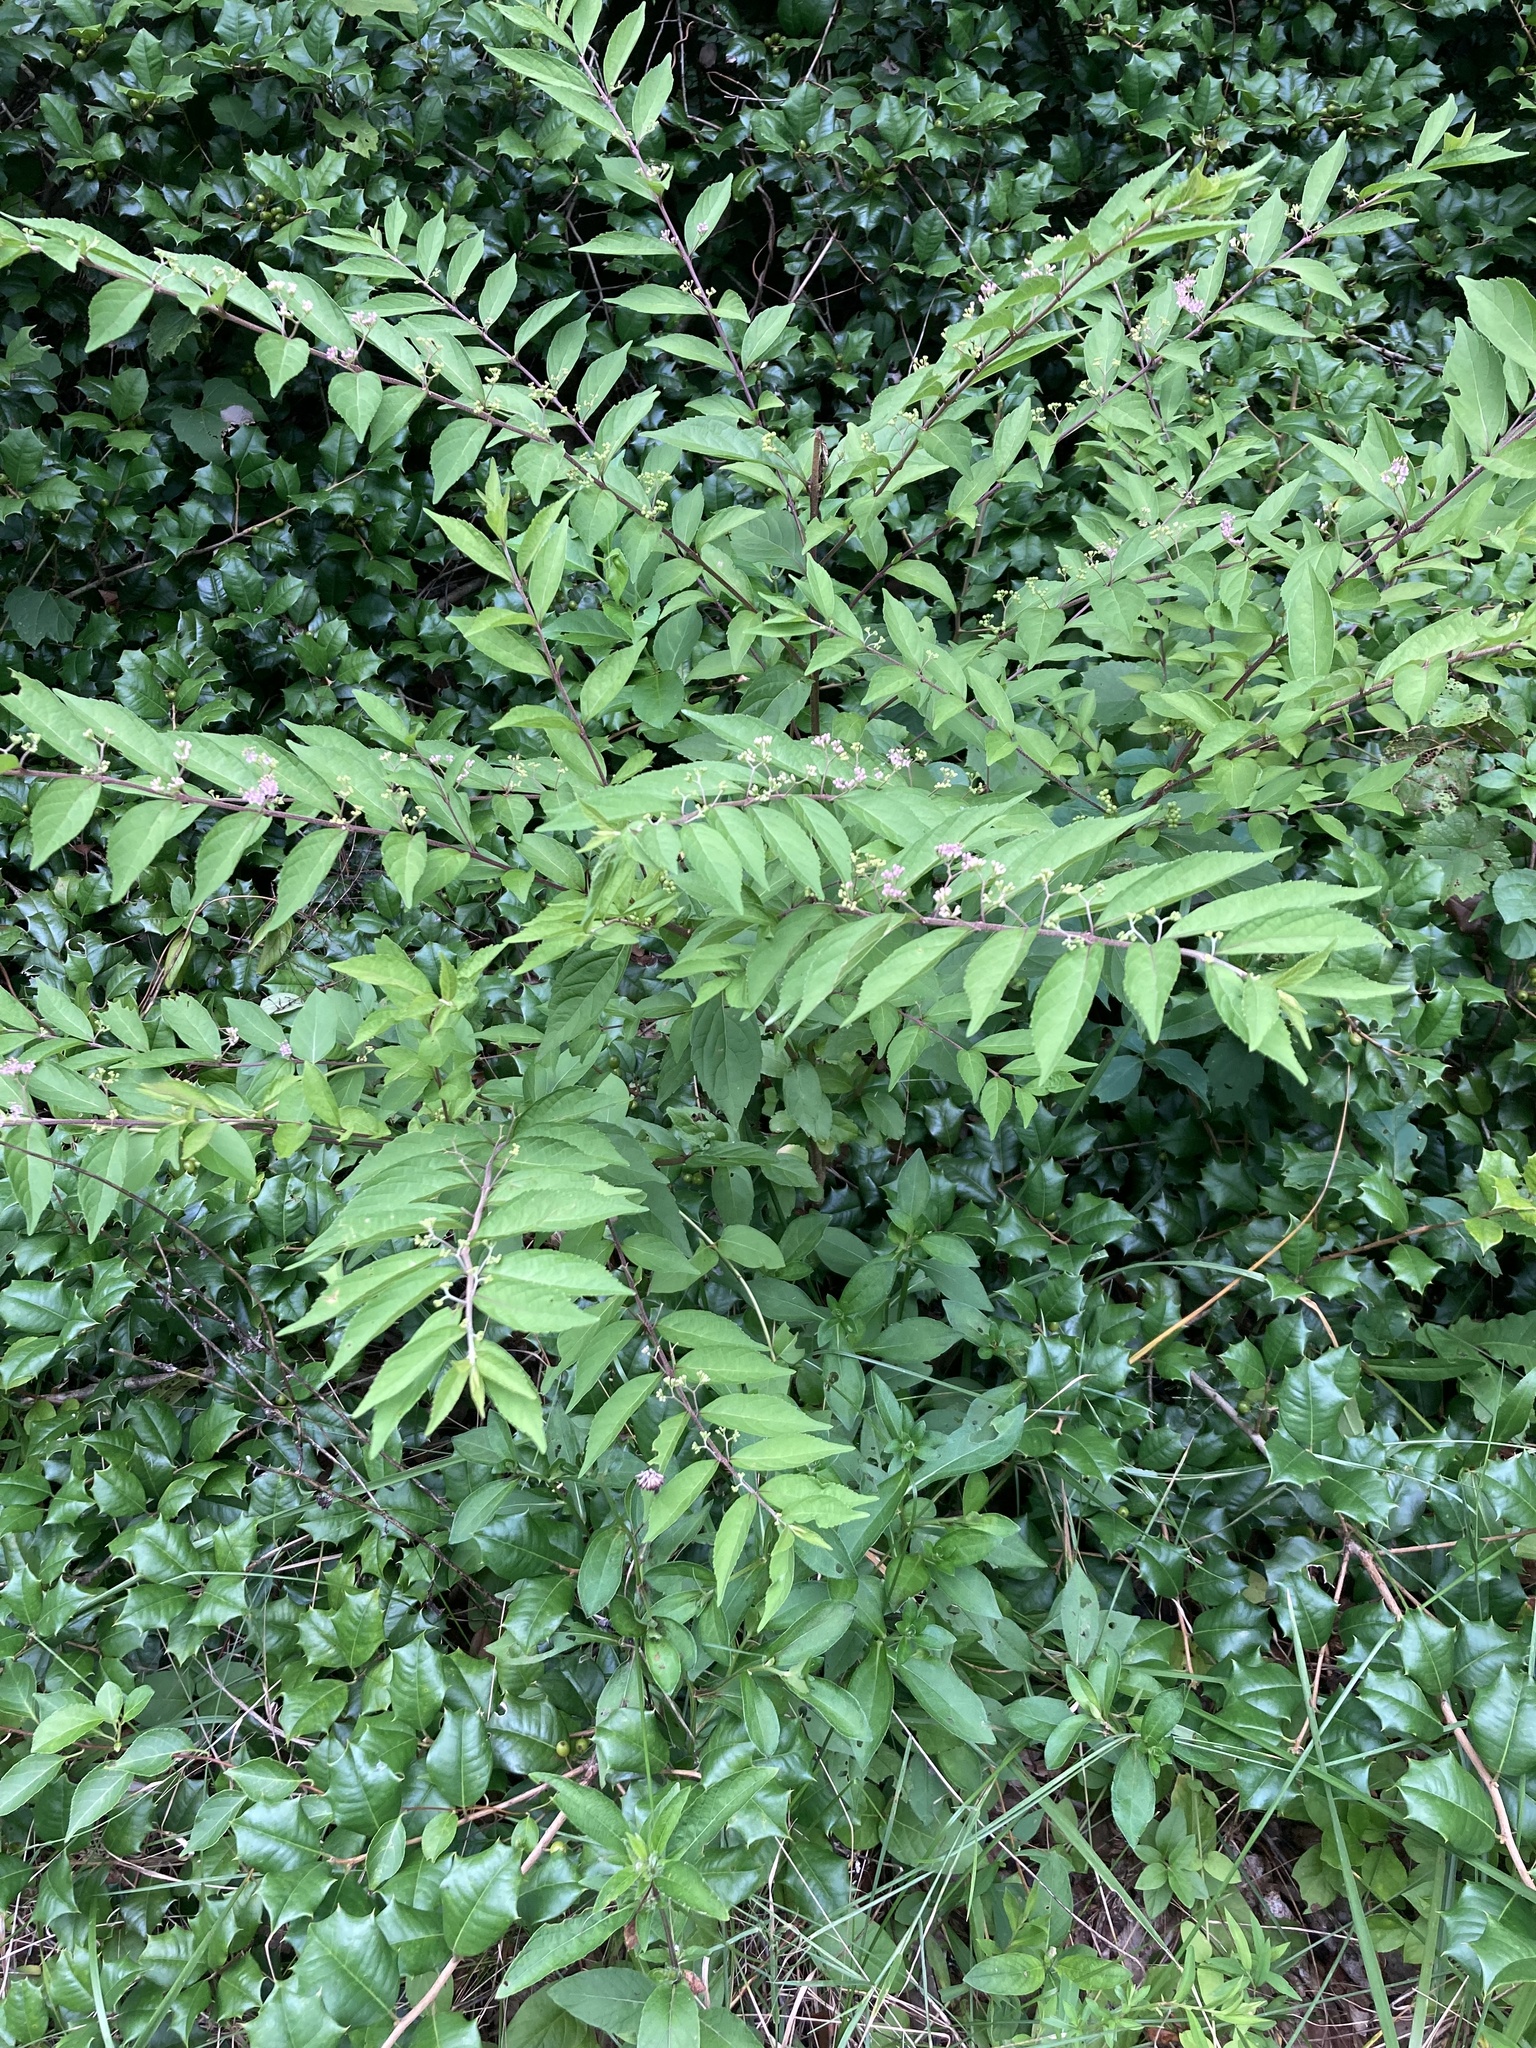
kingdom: Plantae
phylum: Tracheophyta
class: Magnoliopsida
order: Lamiales
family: Lamiaceae
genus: Callicarpa
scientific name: Callicarpa dichotoma
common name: Purple beauty-berry
